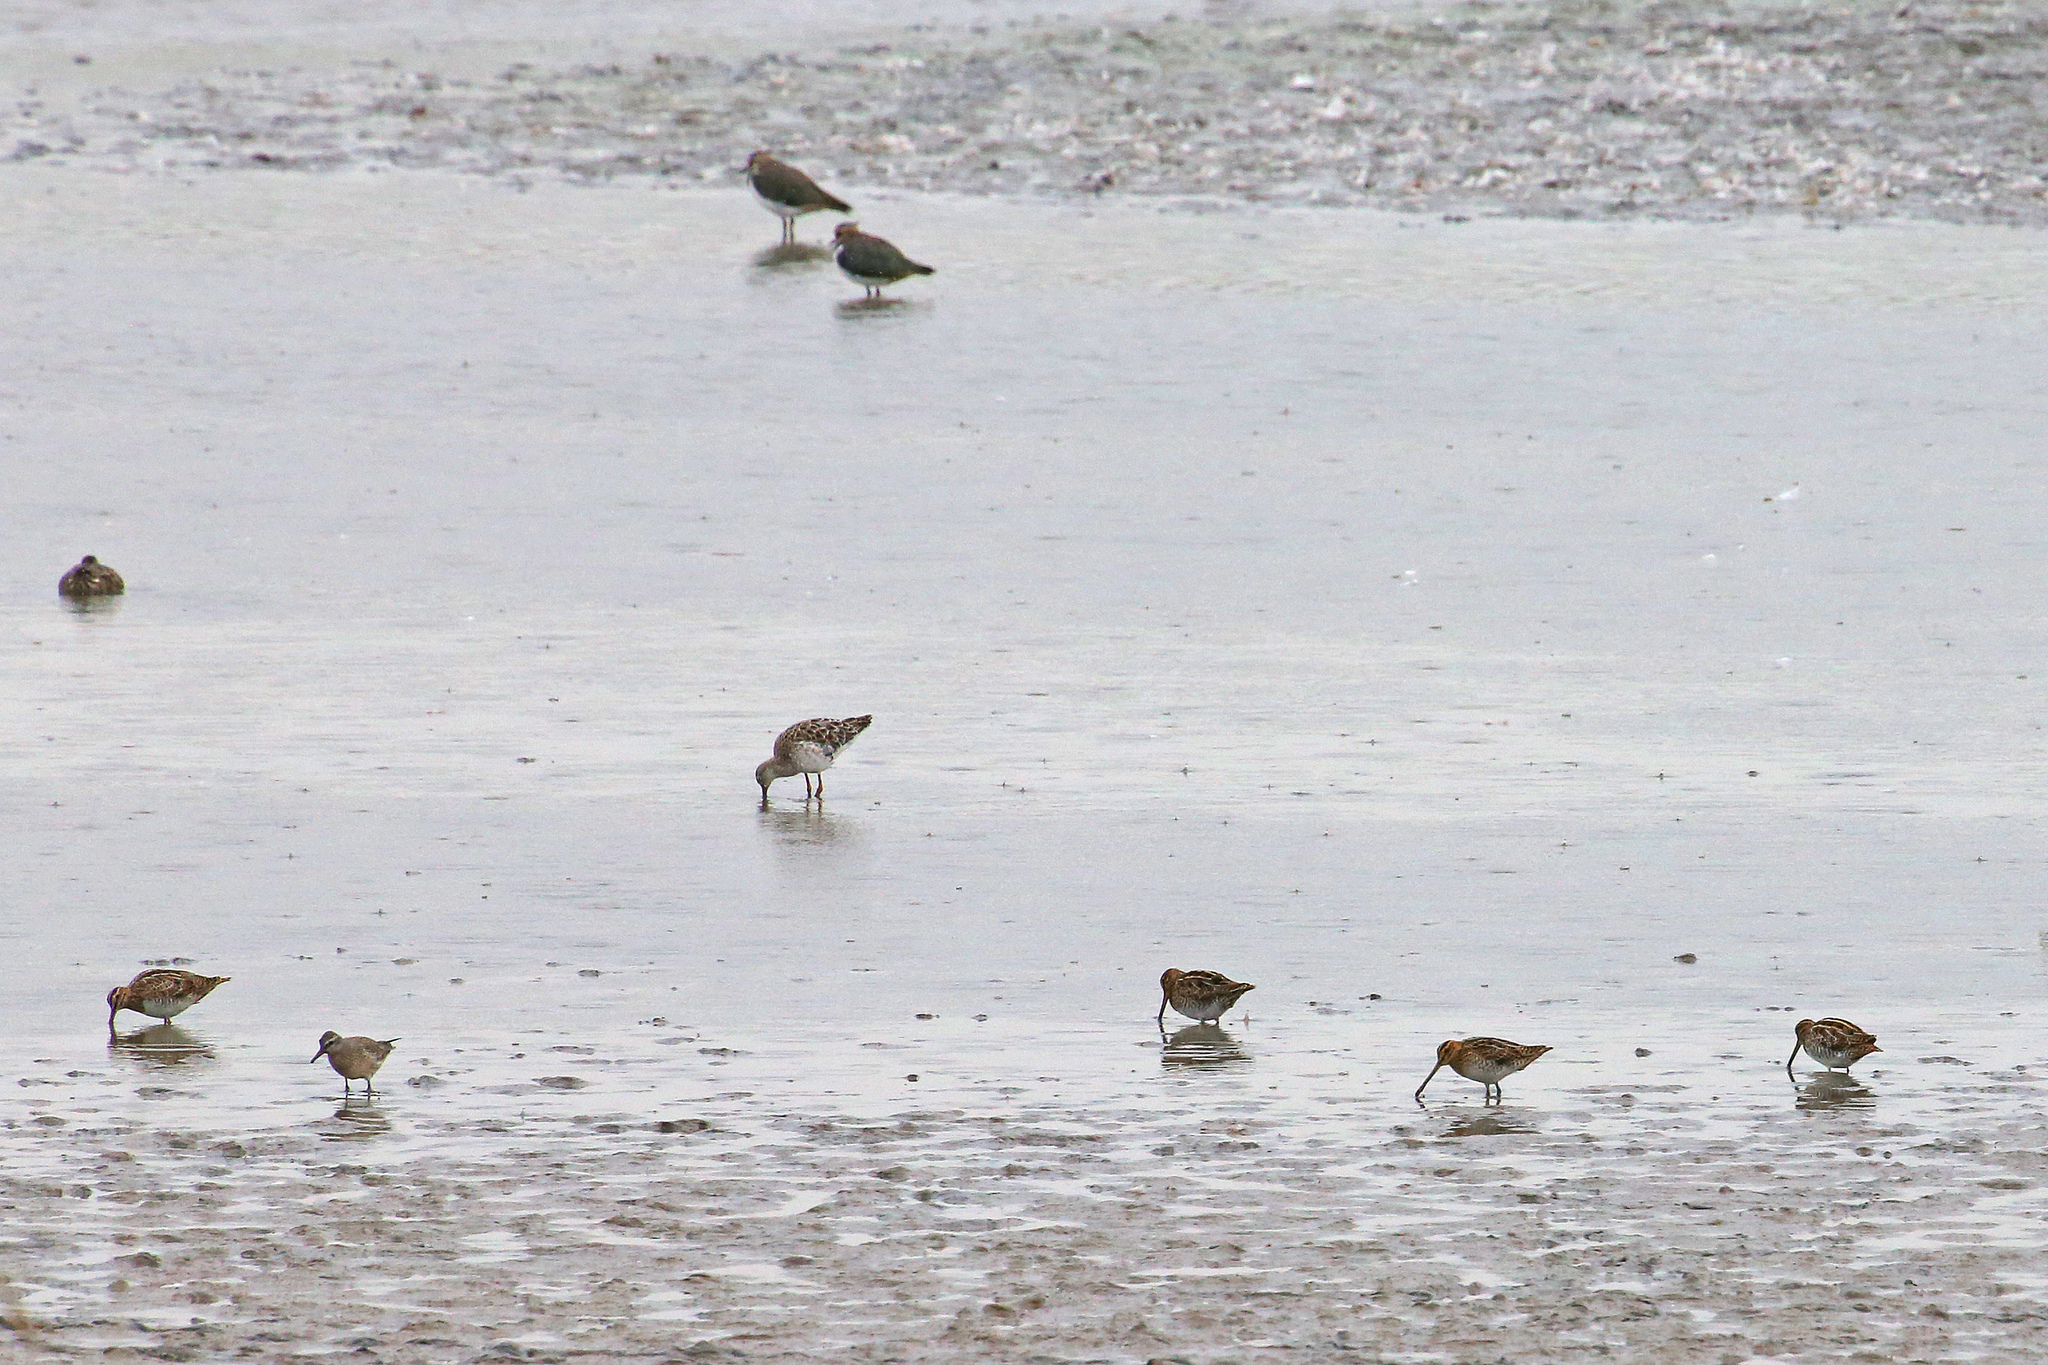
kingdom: Animalia
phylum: Chordata
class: Aves
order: Charadriiformes
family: Scolopacidae
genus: Calidris
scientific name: Calidris canutus
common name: Red knot
